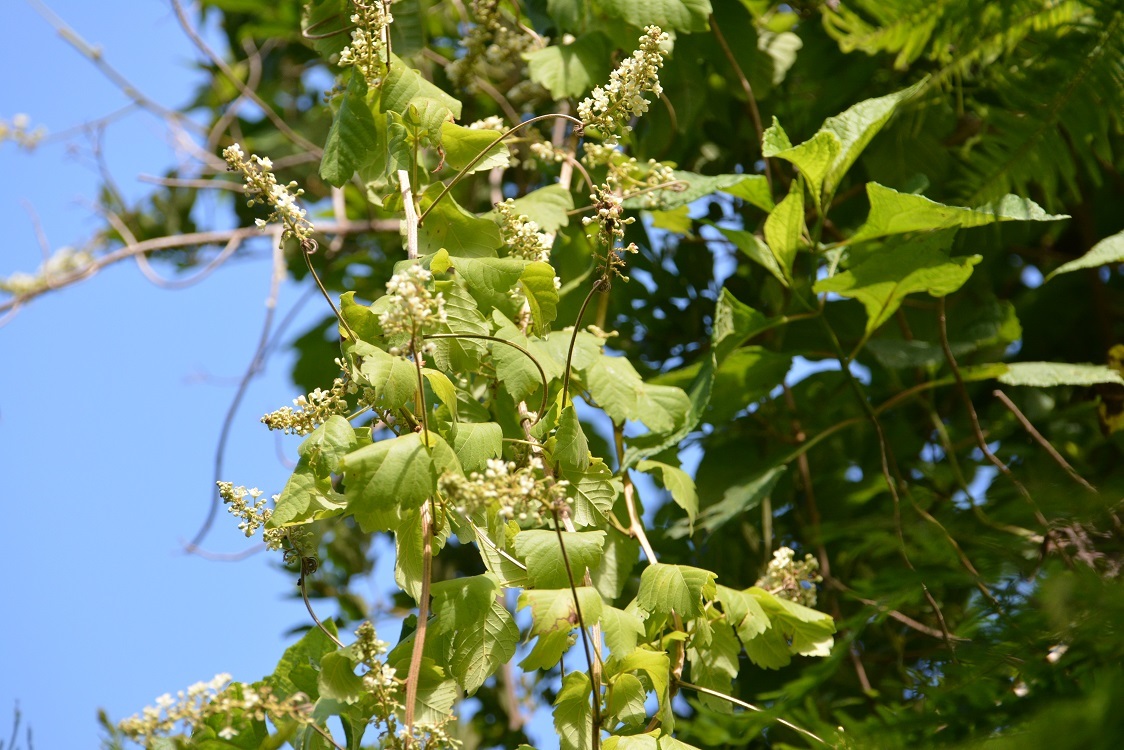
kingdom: Plantae
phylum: Tracheophyta
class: Magnoliopsida
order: Sapindales
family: Sapindaceae
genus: Cardiospermum
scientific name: Cardiospermum grandiflorum
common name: Balloon vine
